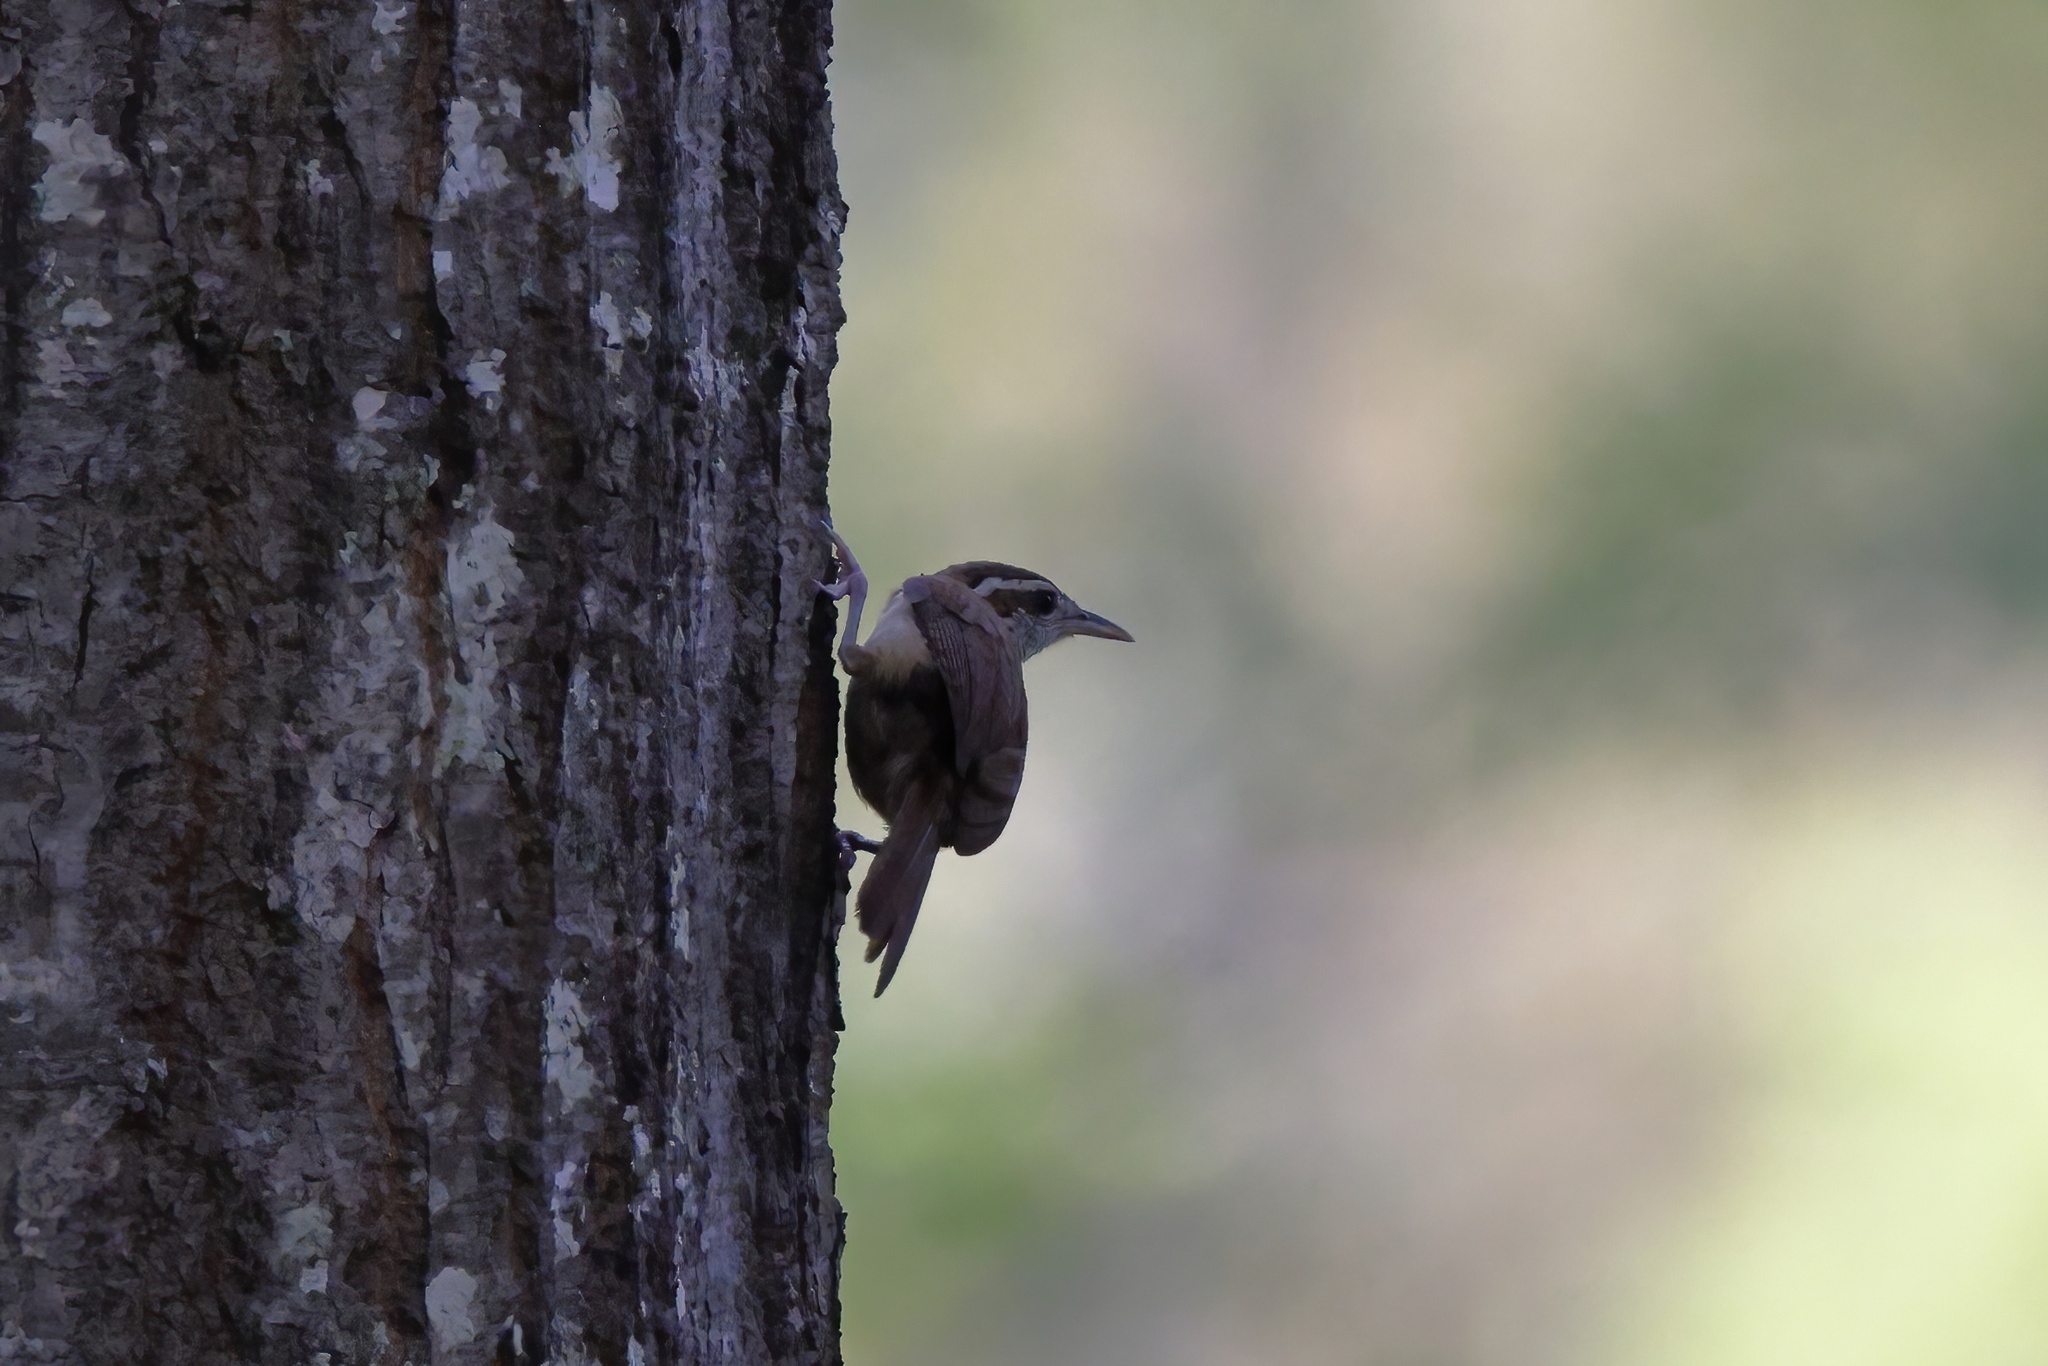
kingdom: Animalia
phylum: Chordata
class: Aves
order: Passeriformes
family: Troglodytidae
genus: Thryothorus
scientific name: Thryothorus ludovicianus
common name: Carolina wren
